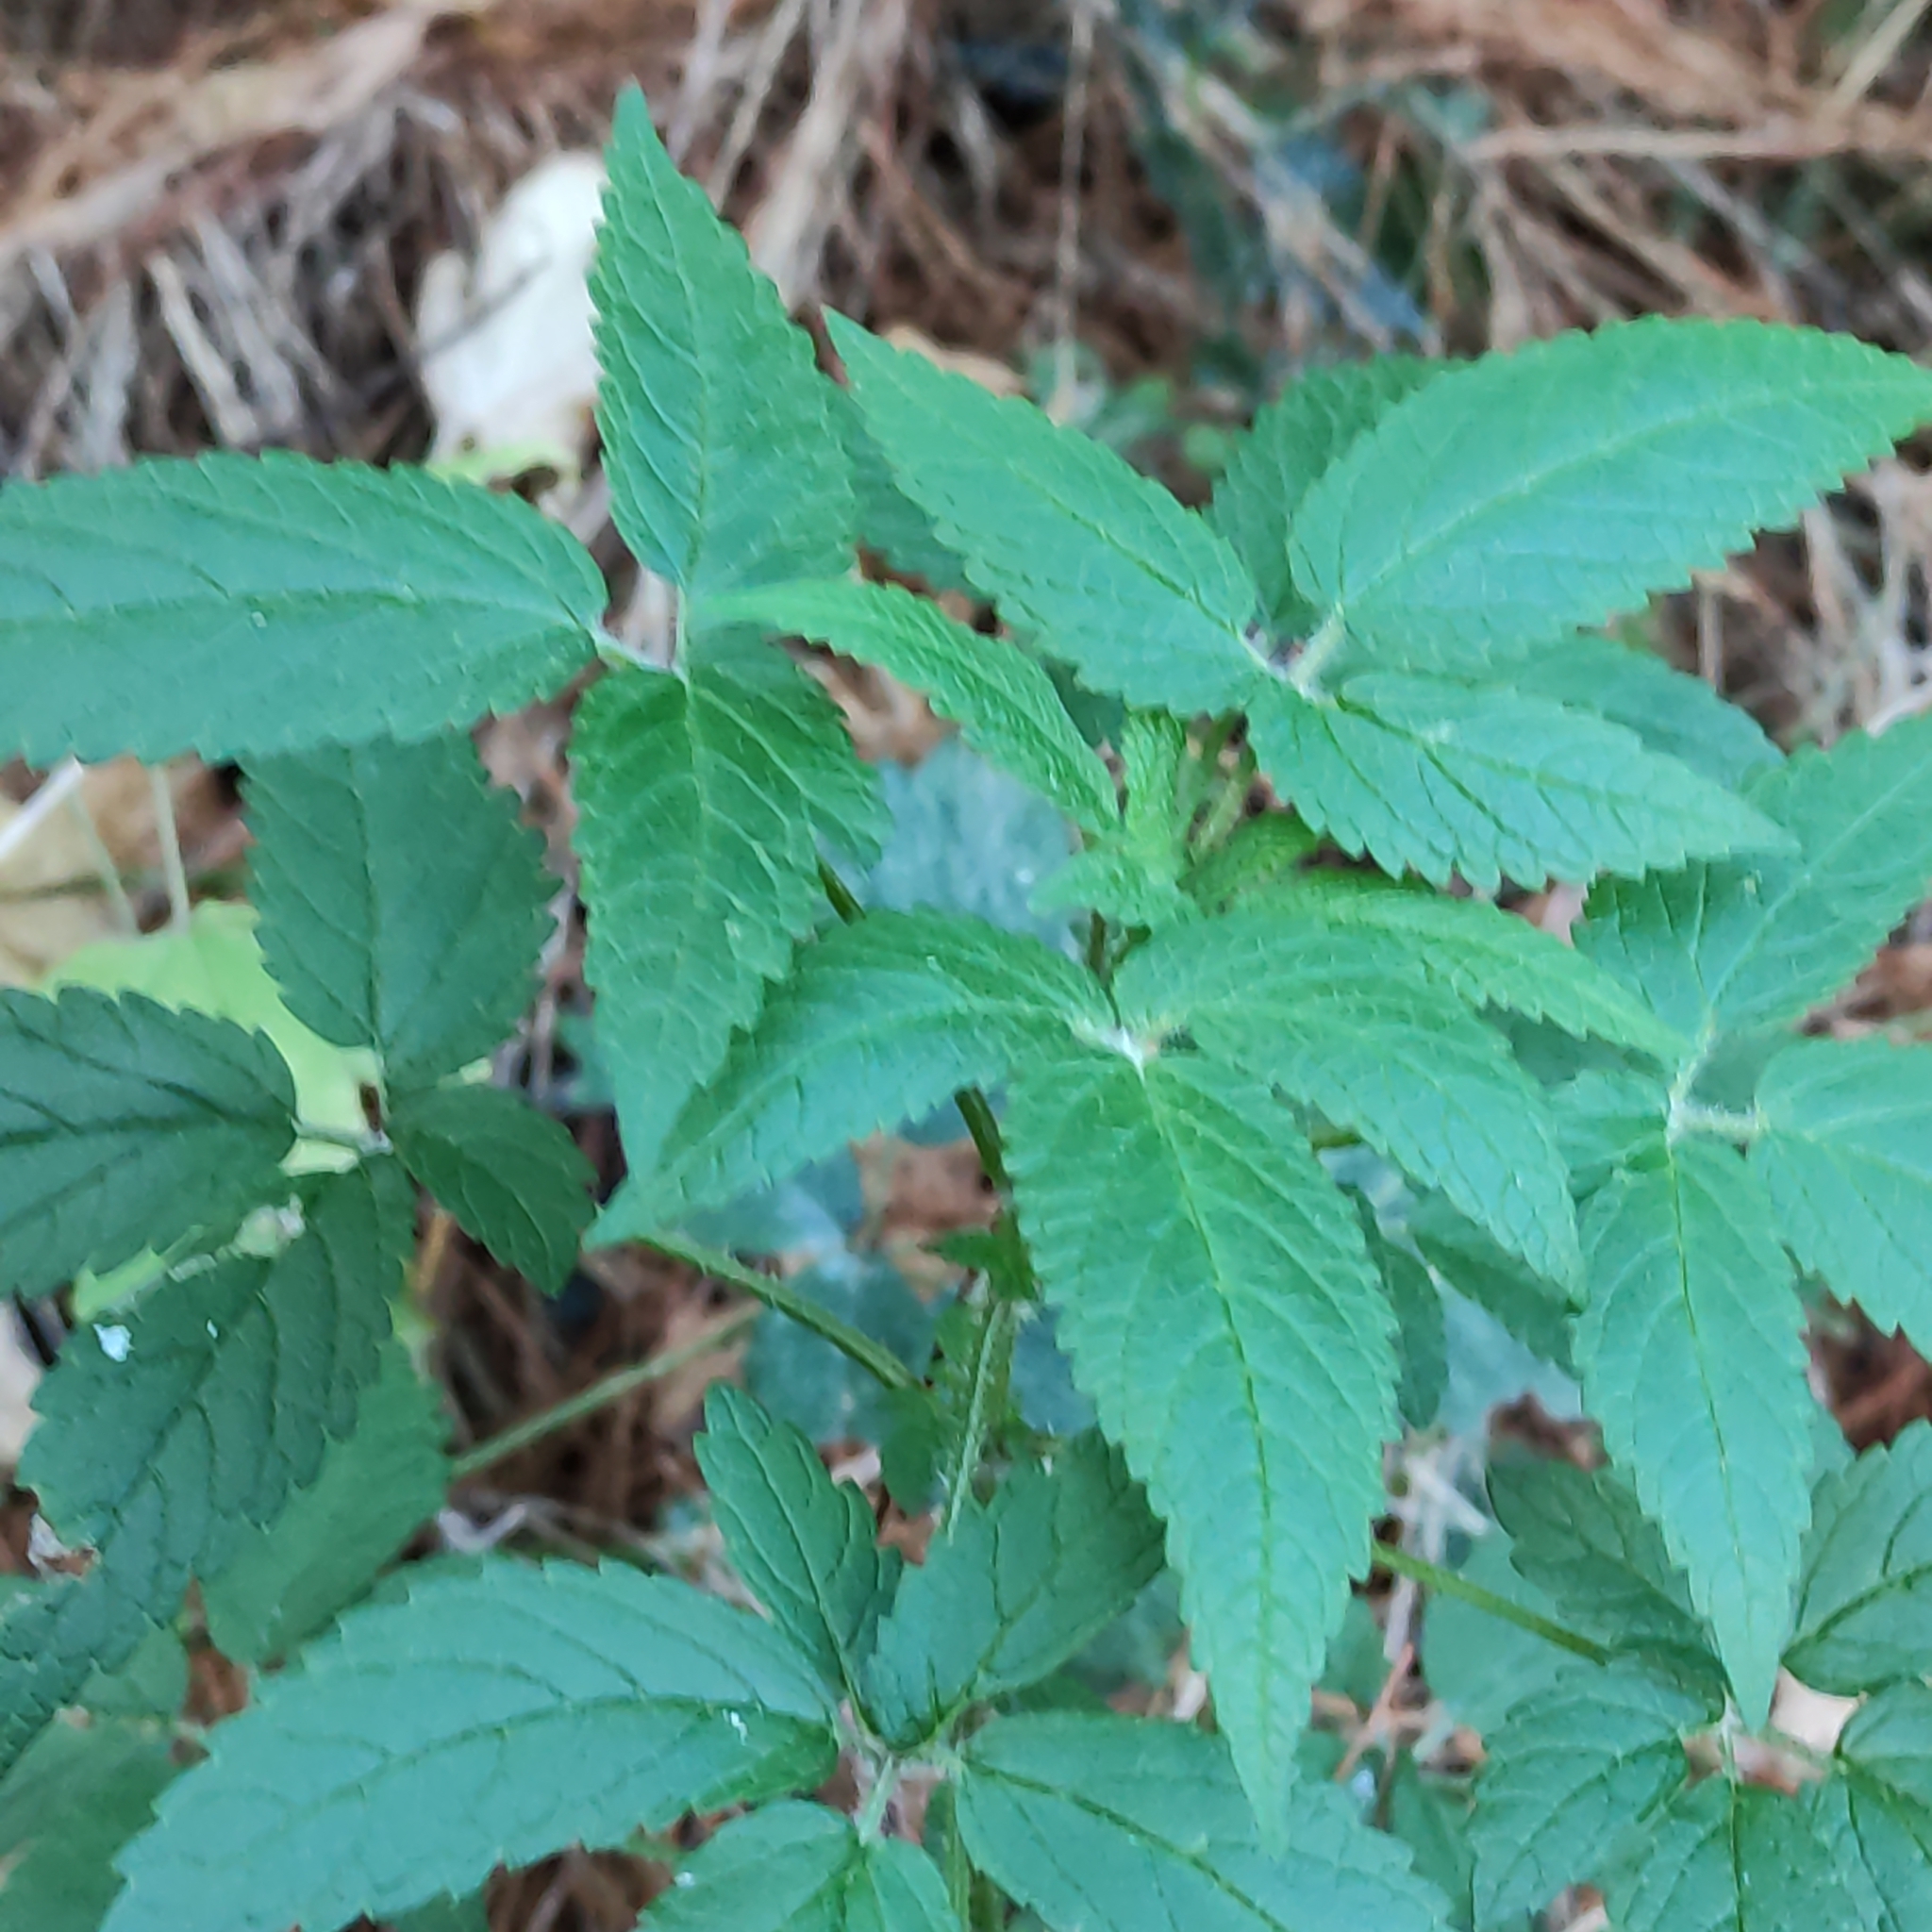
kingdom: Plantae
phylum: Tracheophyta
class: Magnoliopsida
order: Lamiales
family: Lamiaceae
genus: Cedronella
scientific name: Cedronella canariensis
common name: Canary islands balm
